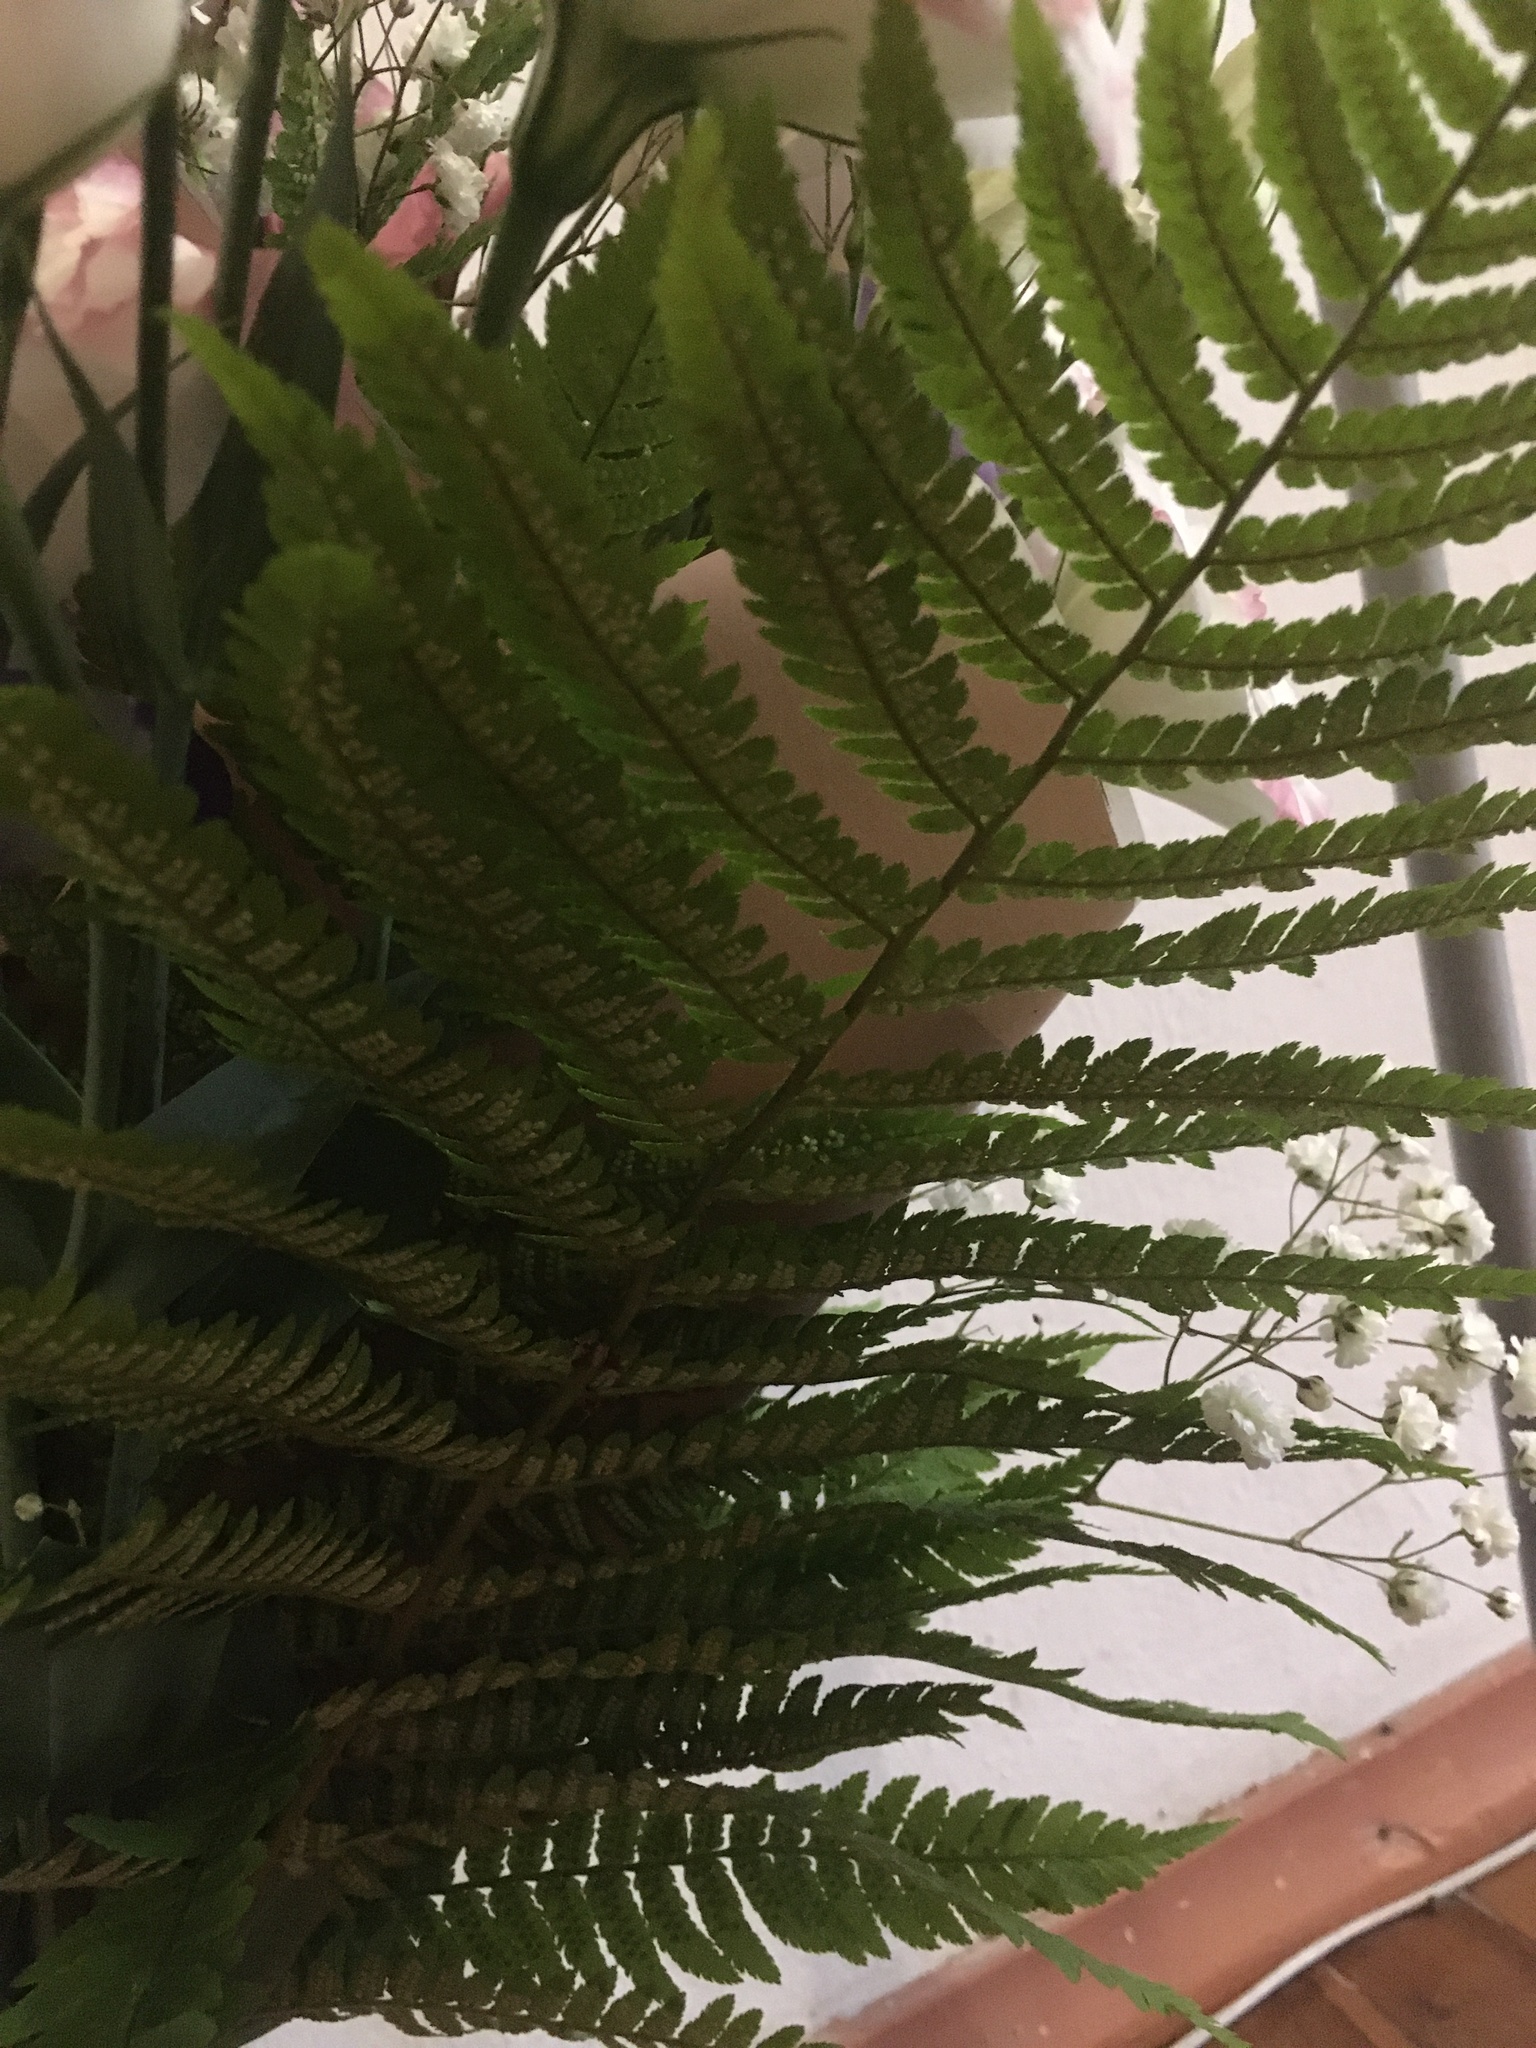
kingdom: Plantae
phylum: Tracheophyta
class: Polypodiopsida
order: Polypodiales
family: Dryopteridaceae
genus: Dryopteris
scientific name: Dryopteris filix-mas
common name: Male fern
